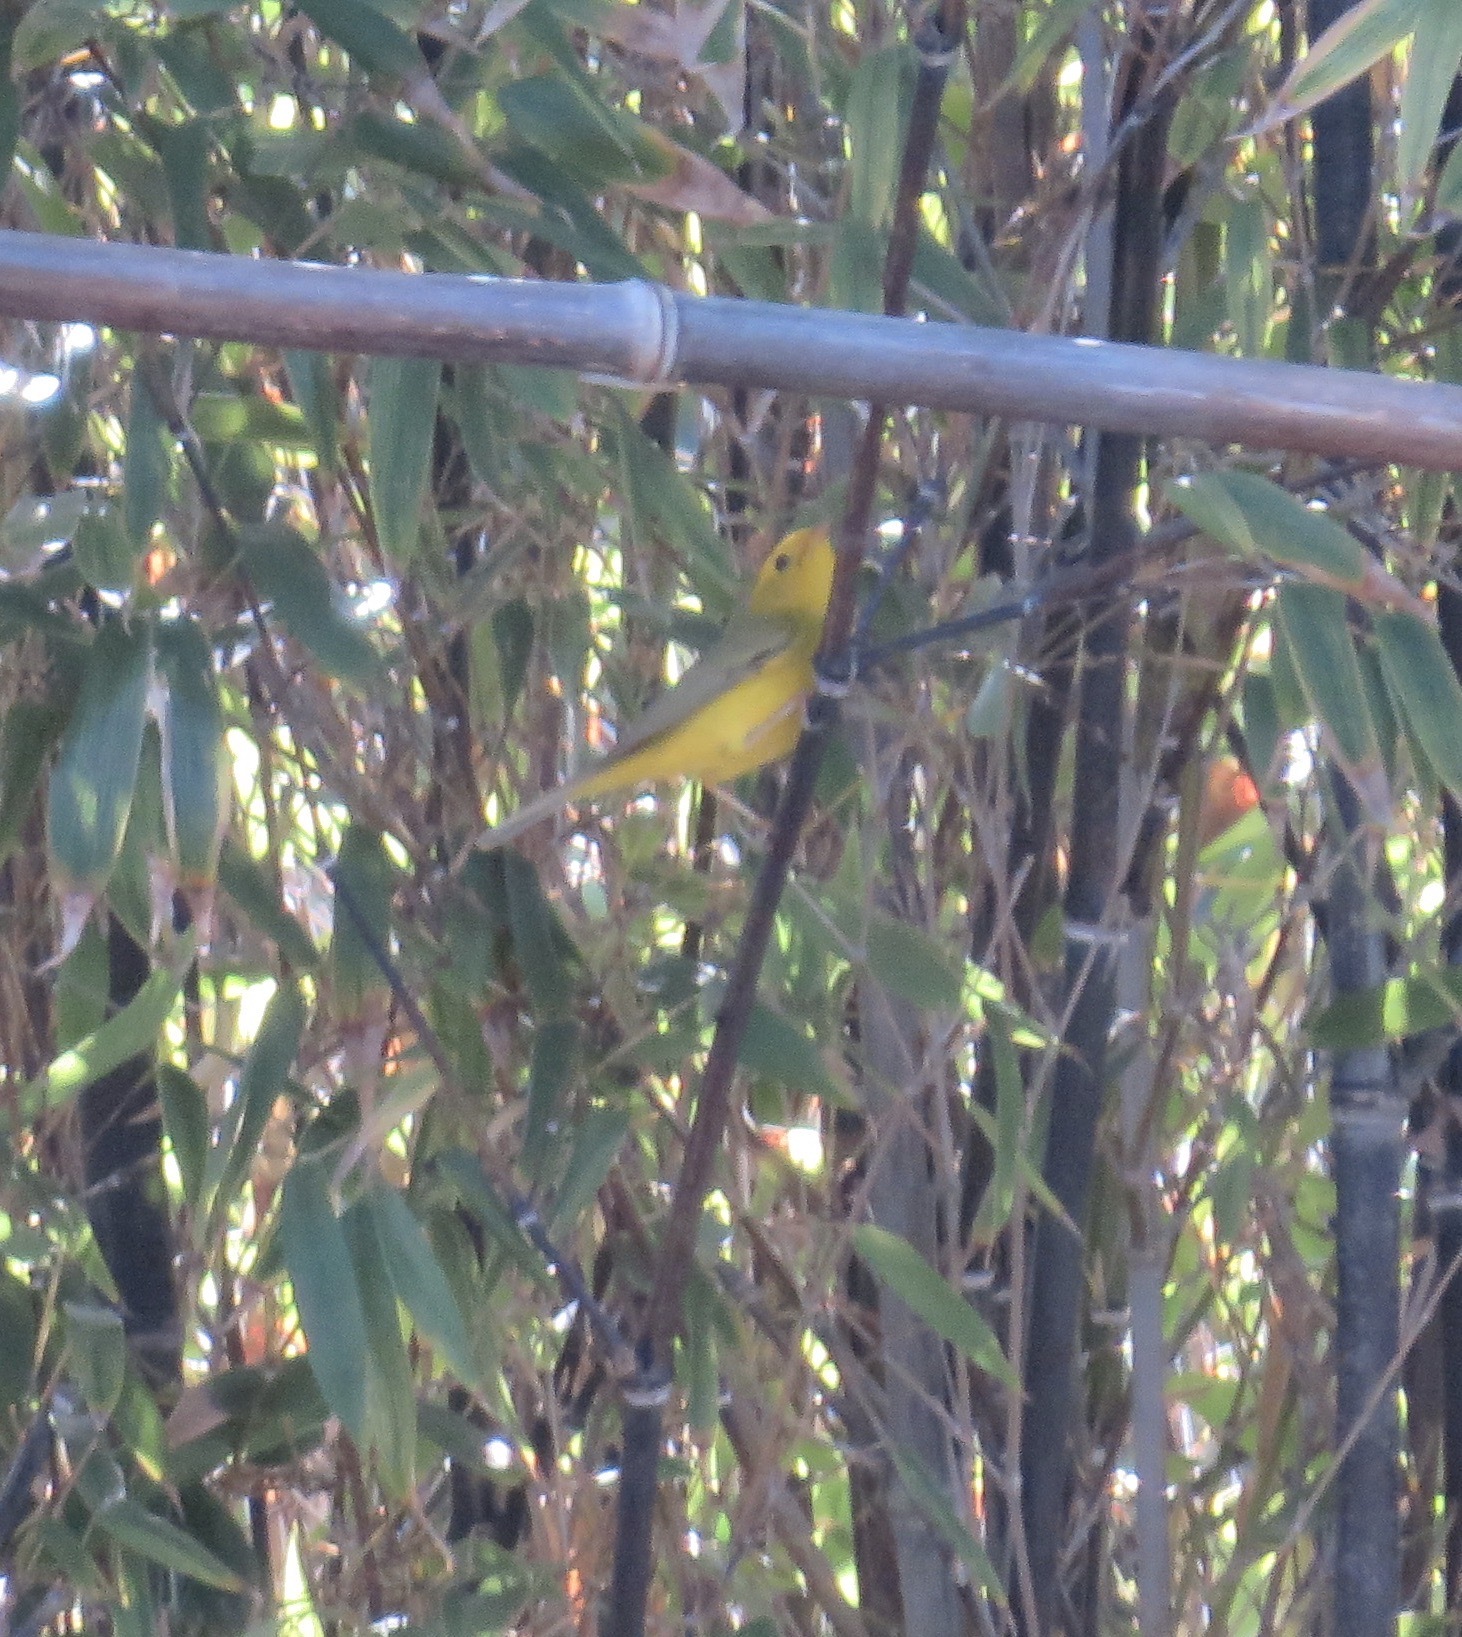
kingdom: Animalia
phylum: Chordata
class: Aves
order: Passeriformes
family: Parulidae
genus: Cardellina
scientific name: Cardellina pusilla
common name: Wilson's warbler
